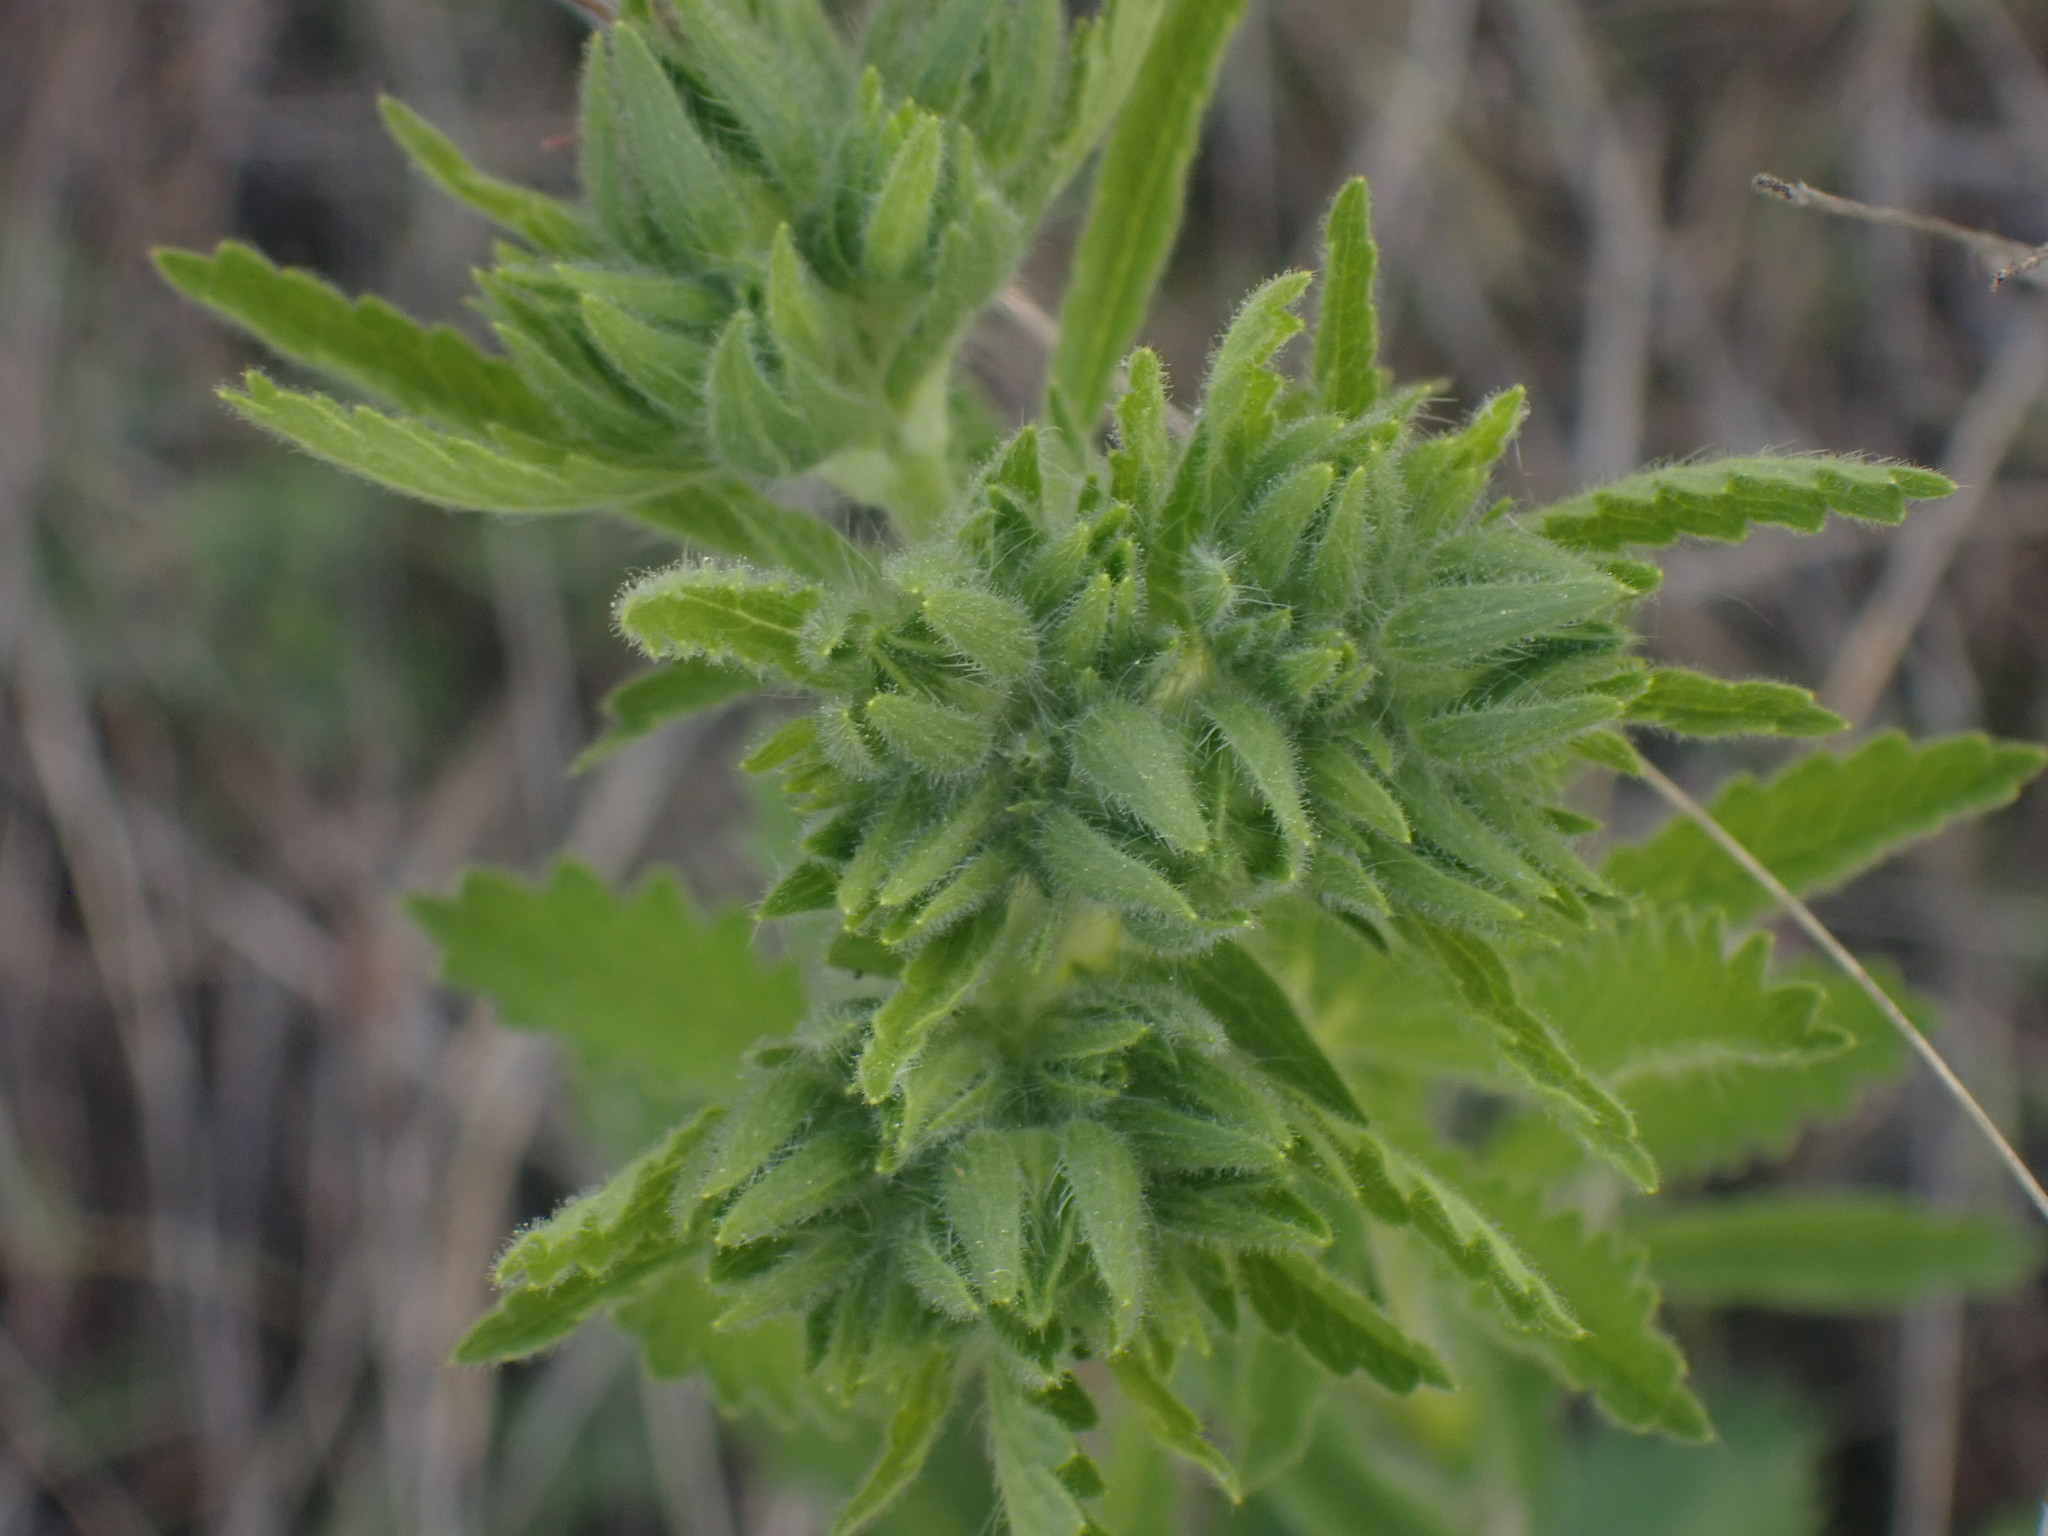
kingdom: Plantae
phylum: Tracheophyta
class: Magnoliopsida
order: Rosales
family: Rosaceae
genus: Potentilla
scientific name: Potentilla recta
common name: Sulphur cinquefoil
